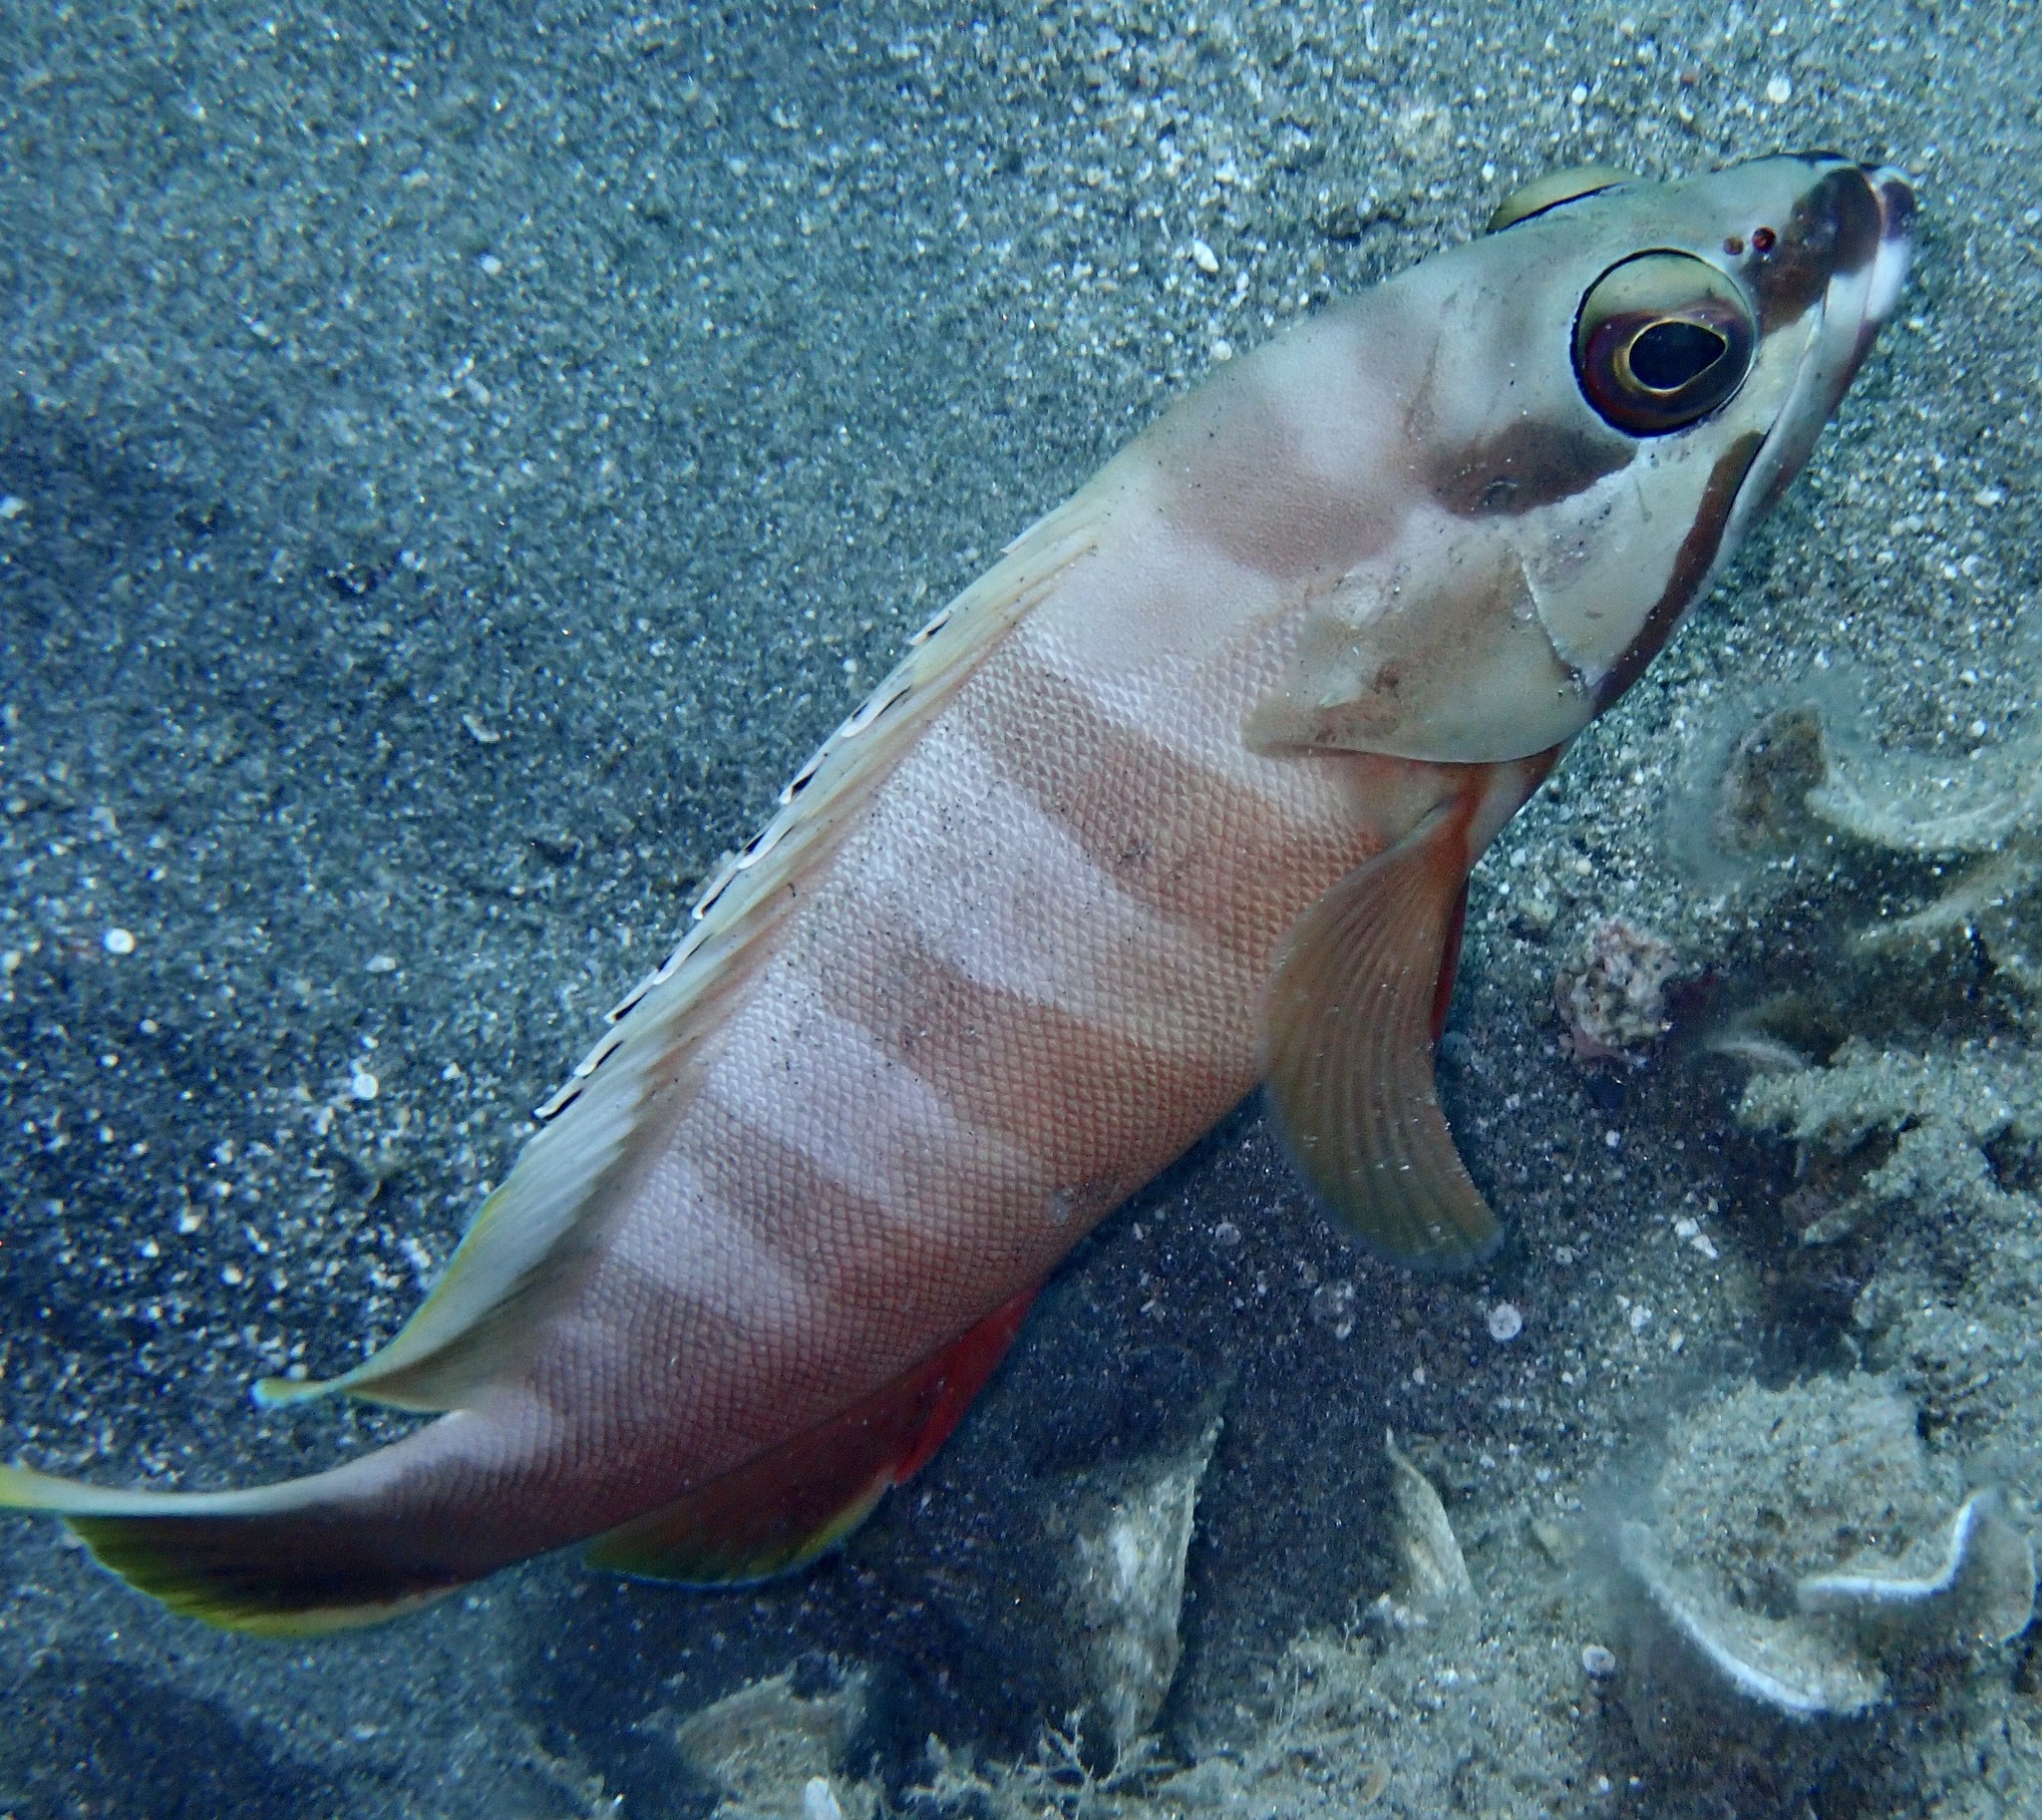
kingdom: Animalia
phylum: Chordata
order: Perciformes
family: Serranidae
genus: Epinephelus
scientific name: Epinephelus fasciatus
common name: Blacktip grouper
